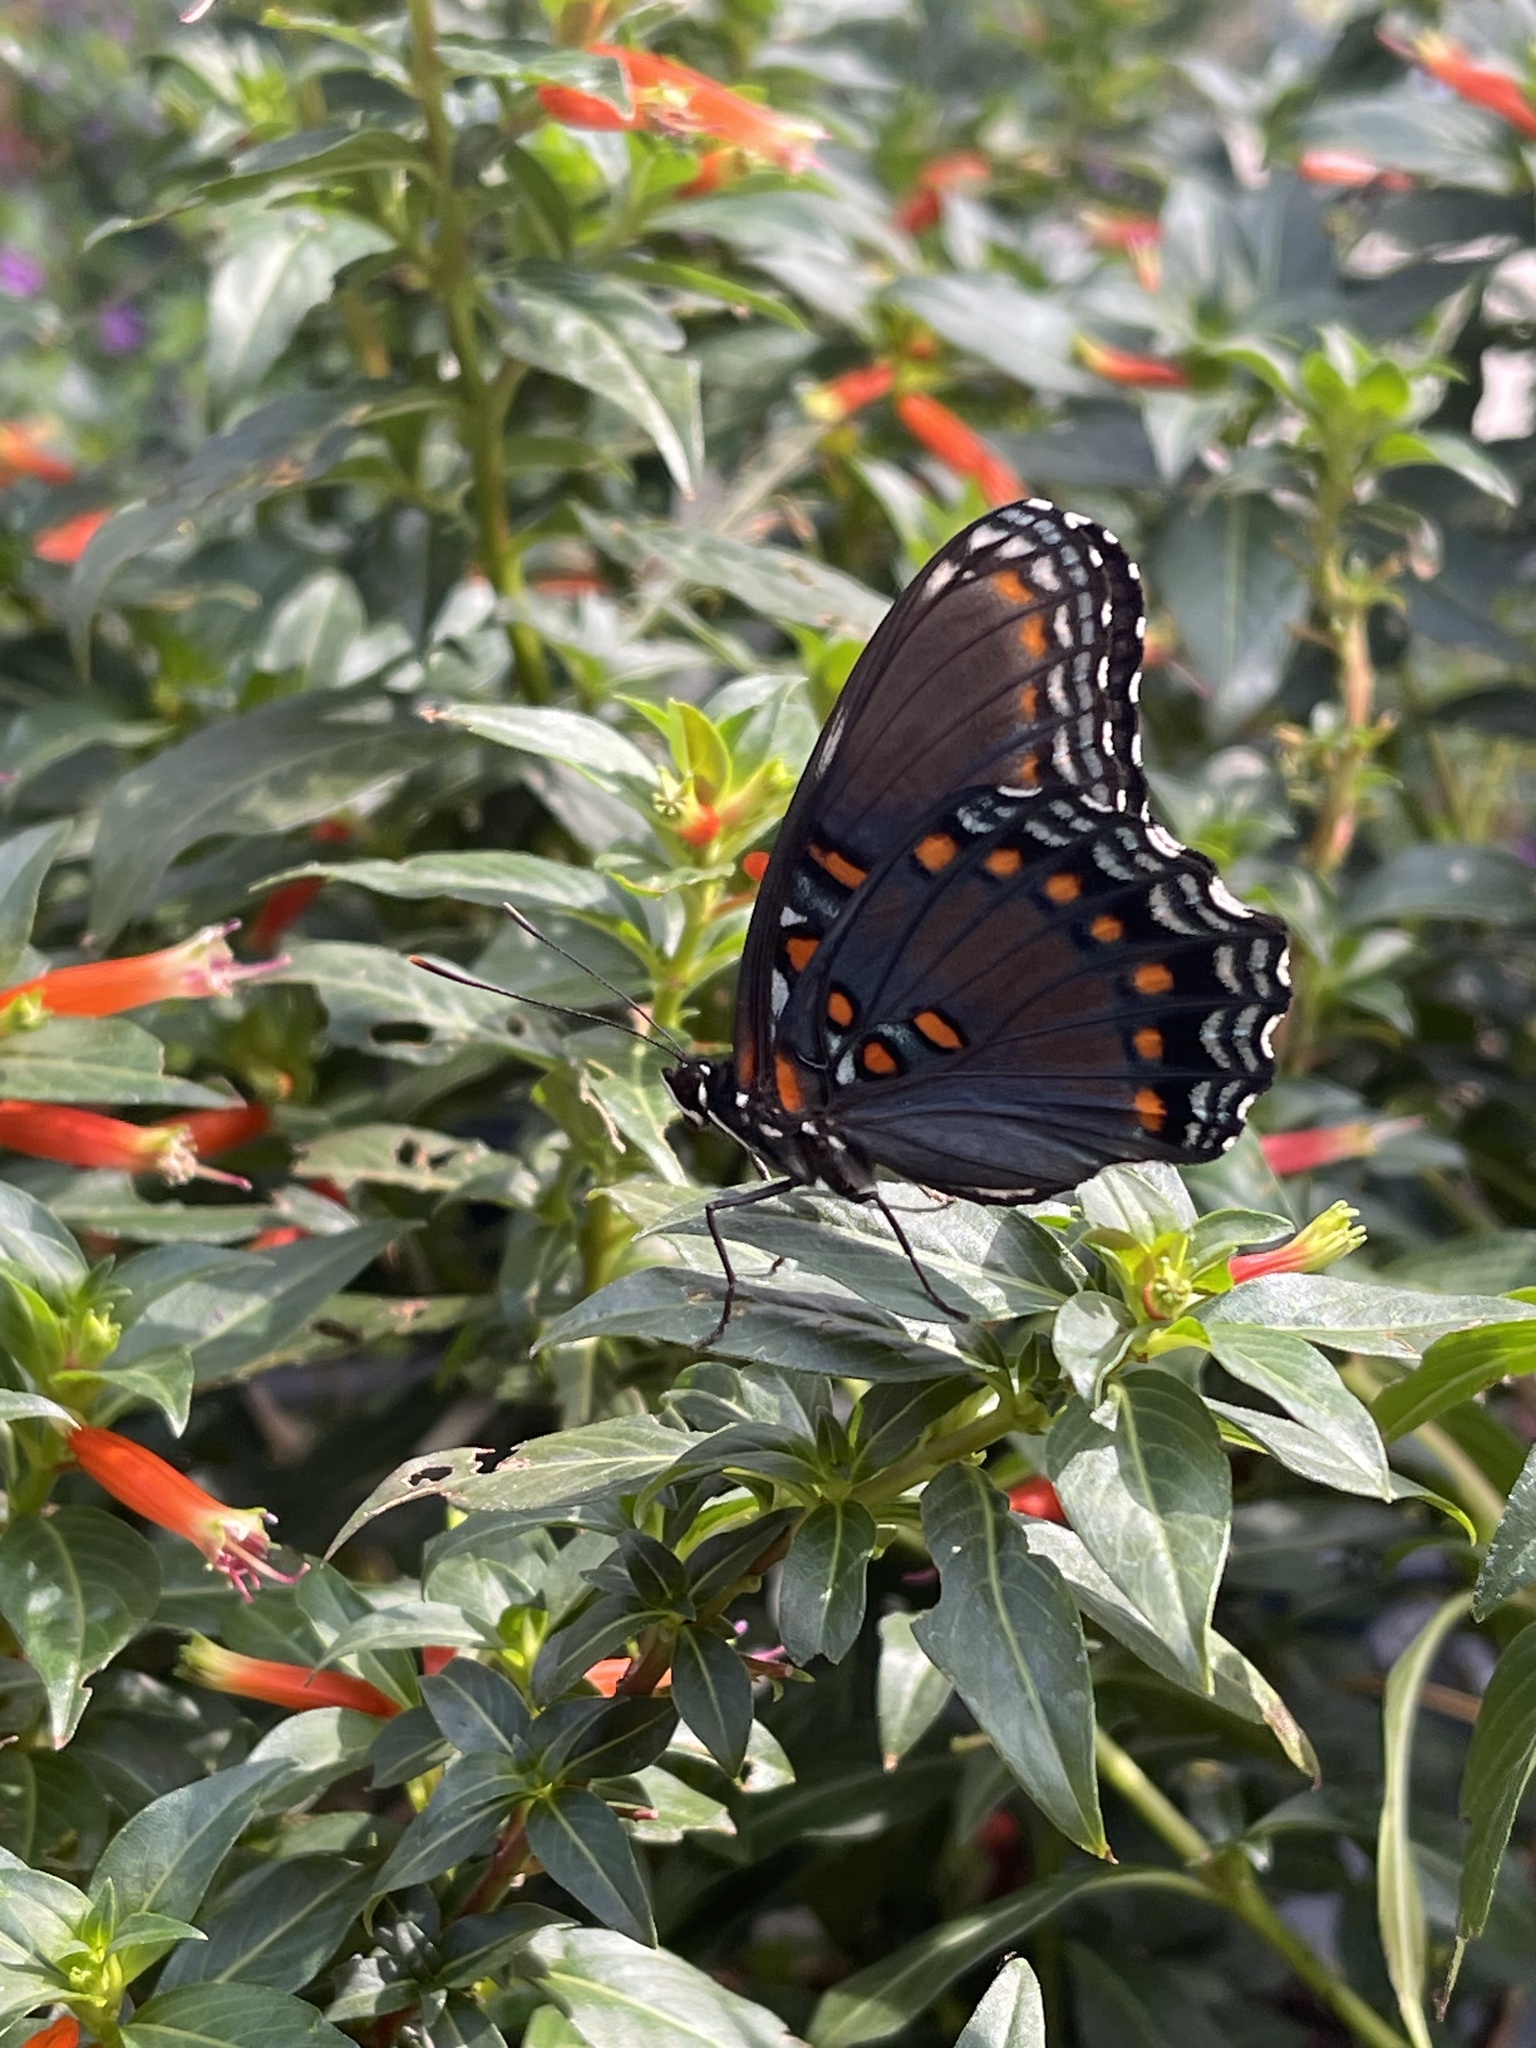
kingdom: Animalia
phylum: Arthropoda
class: Insecta
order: Lepidoptera
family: Nymphalidae
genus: Limenitis
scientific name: Limenitis arthemis
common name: Red-spotted admiral
